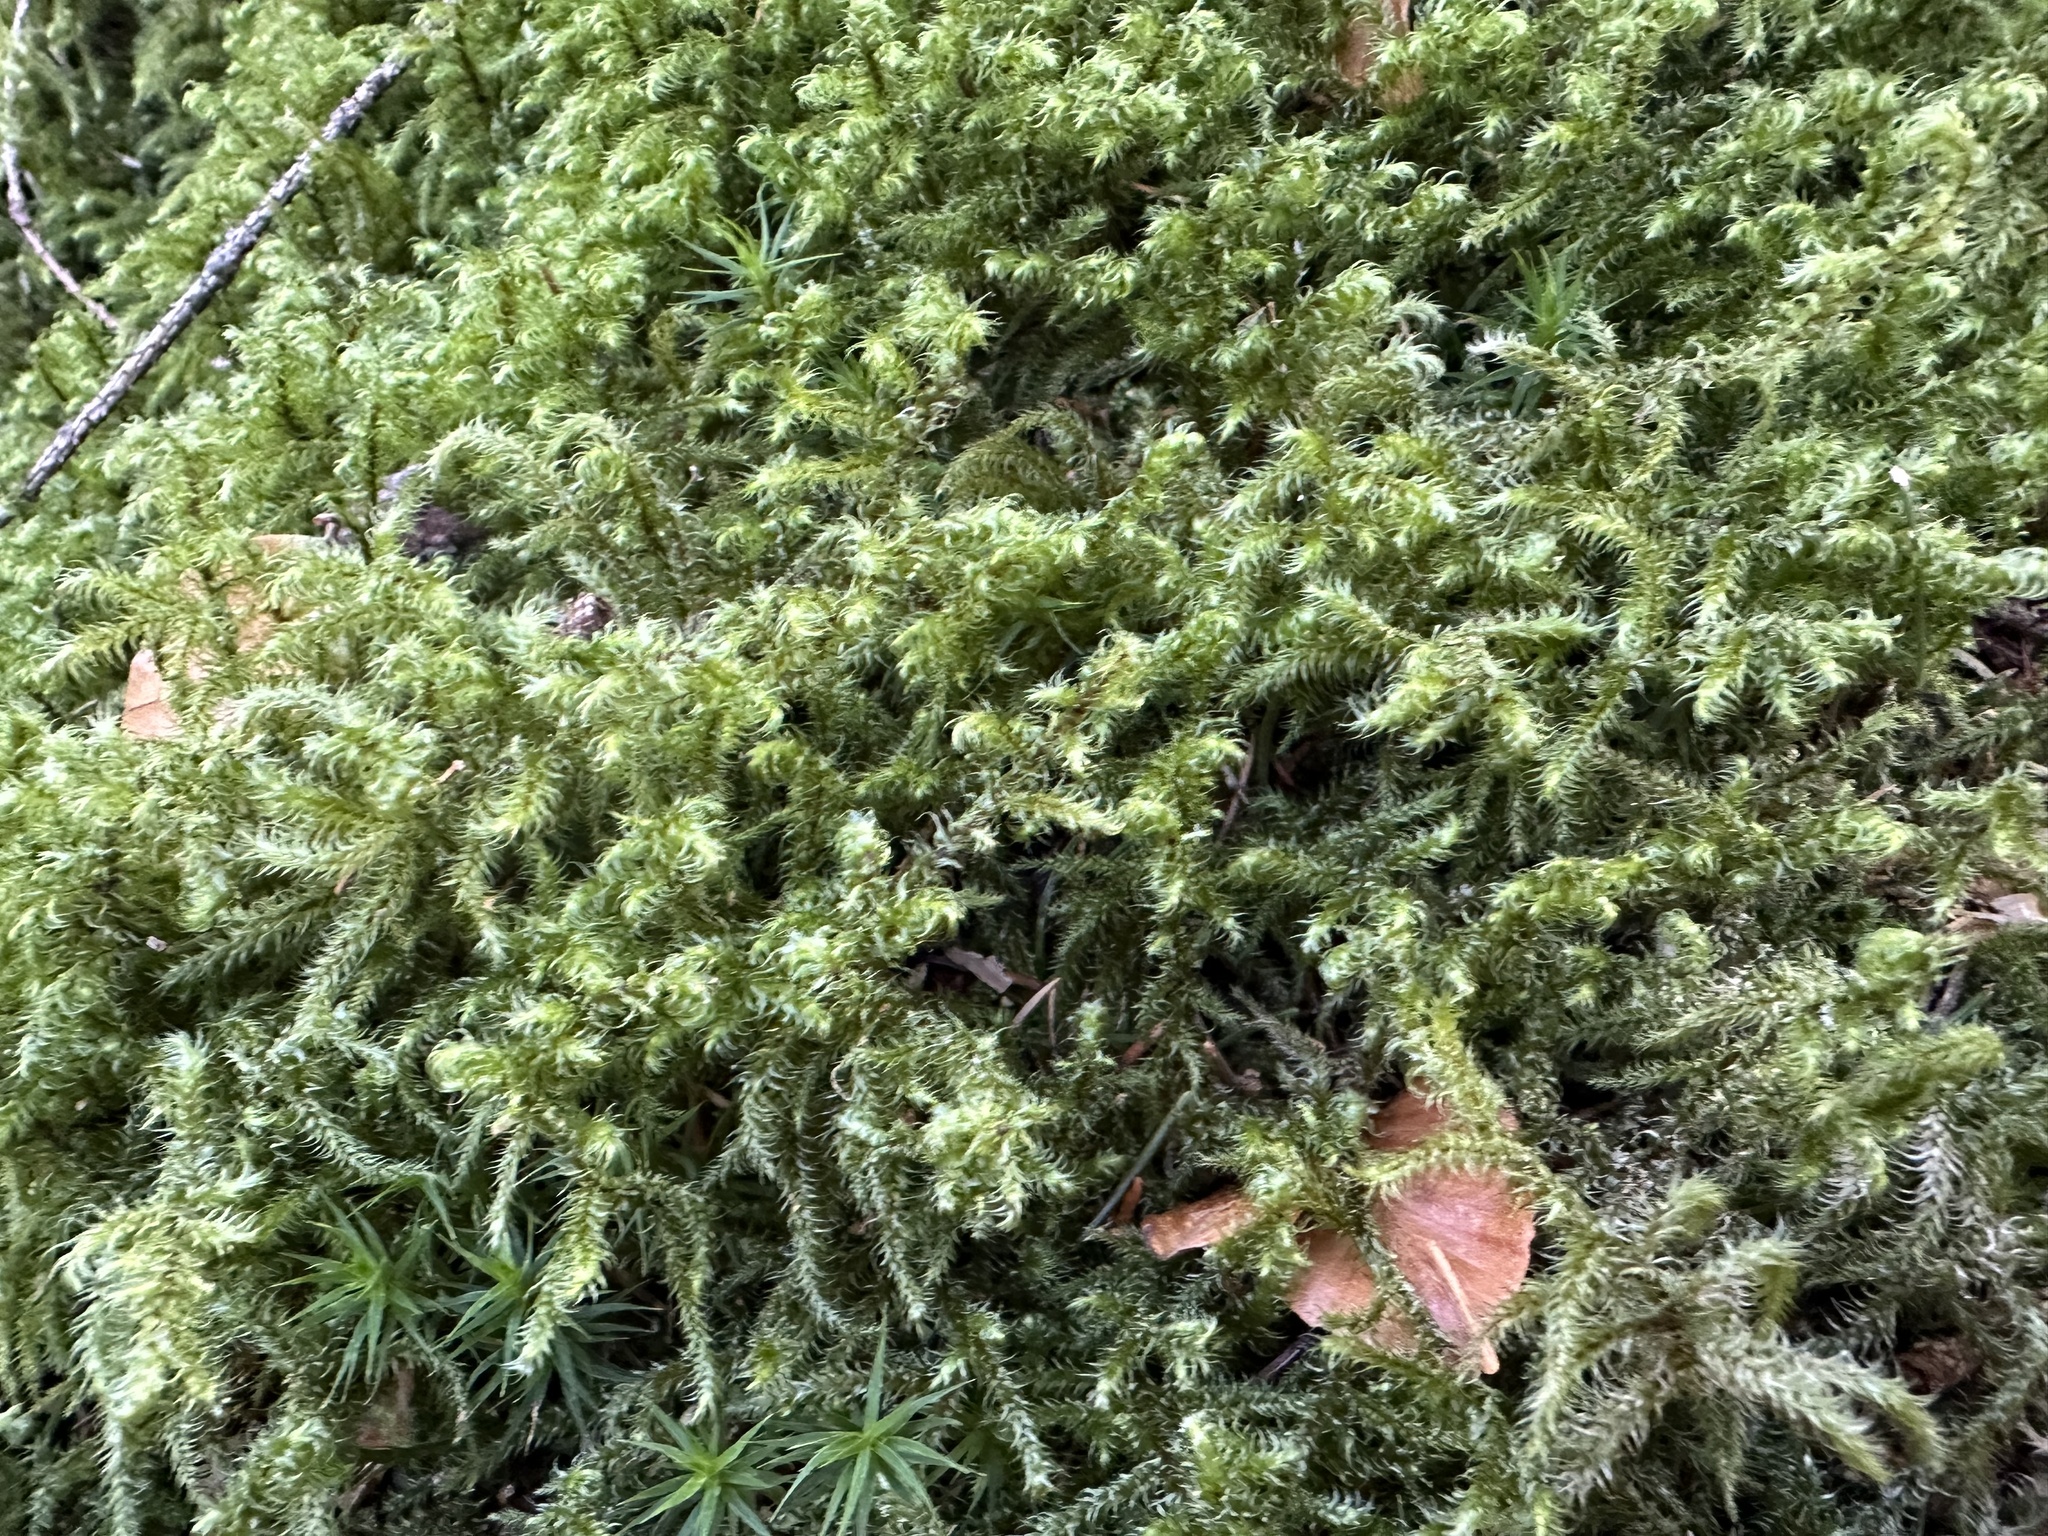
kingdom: Plantae
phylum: Bryophyta
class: Bryopsida
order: Hypnales
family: Hylocomiaceae
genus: Rhytidiadelphus
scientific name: Rhytidiadelphus loreus
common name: Lanky moss
